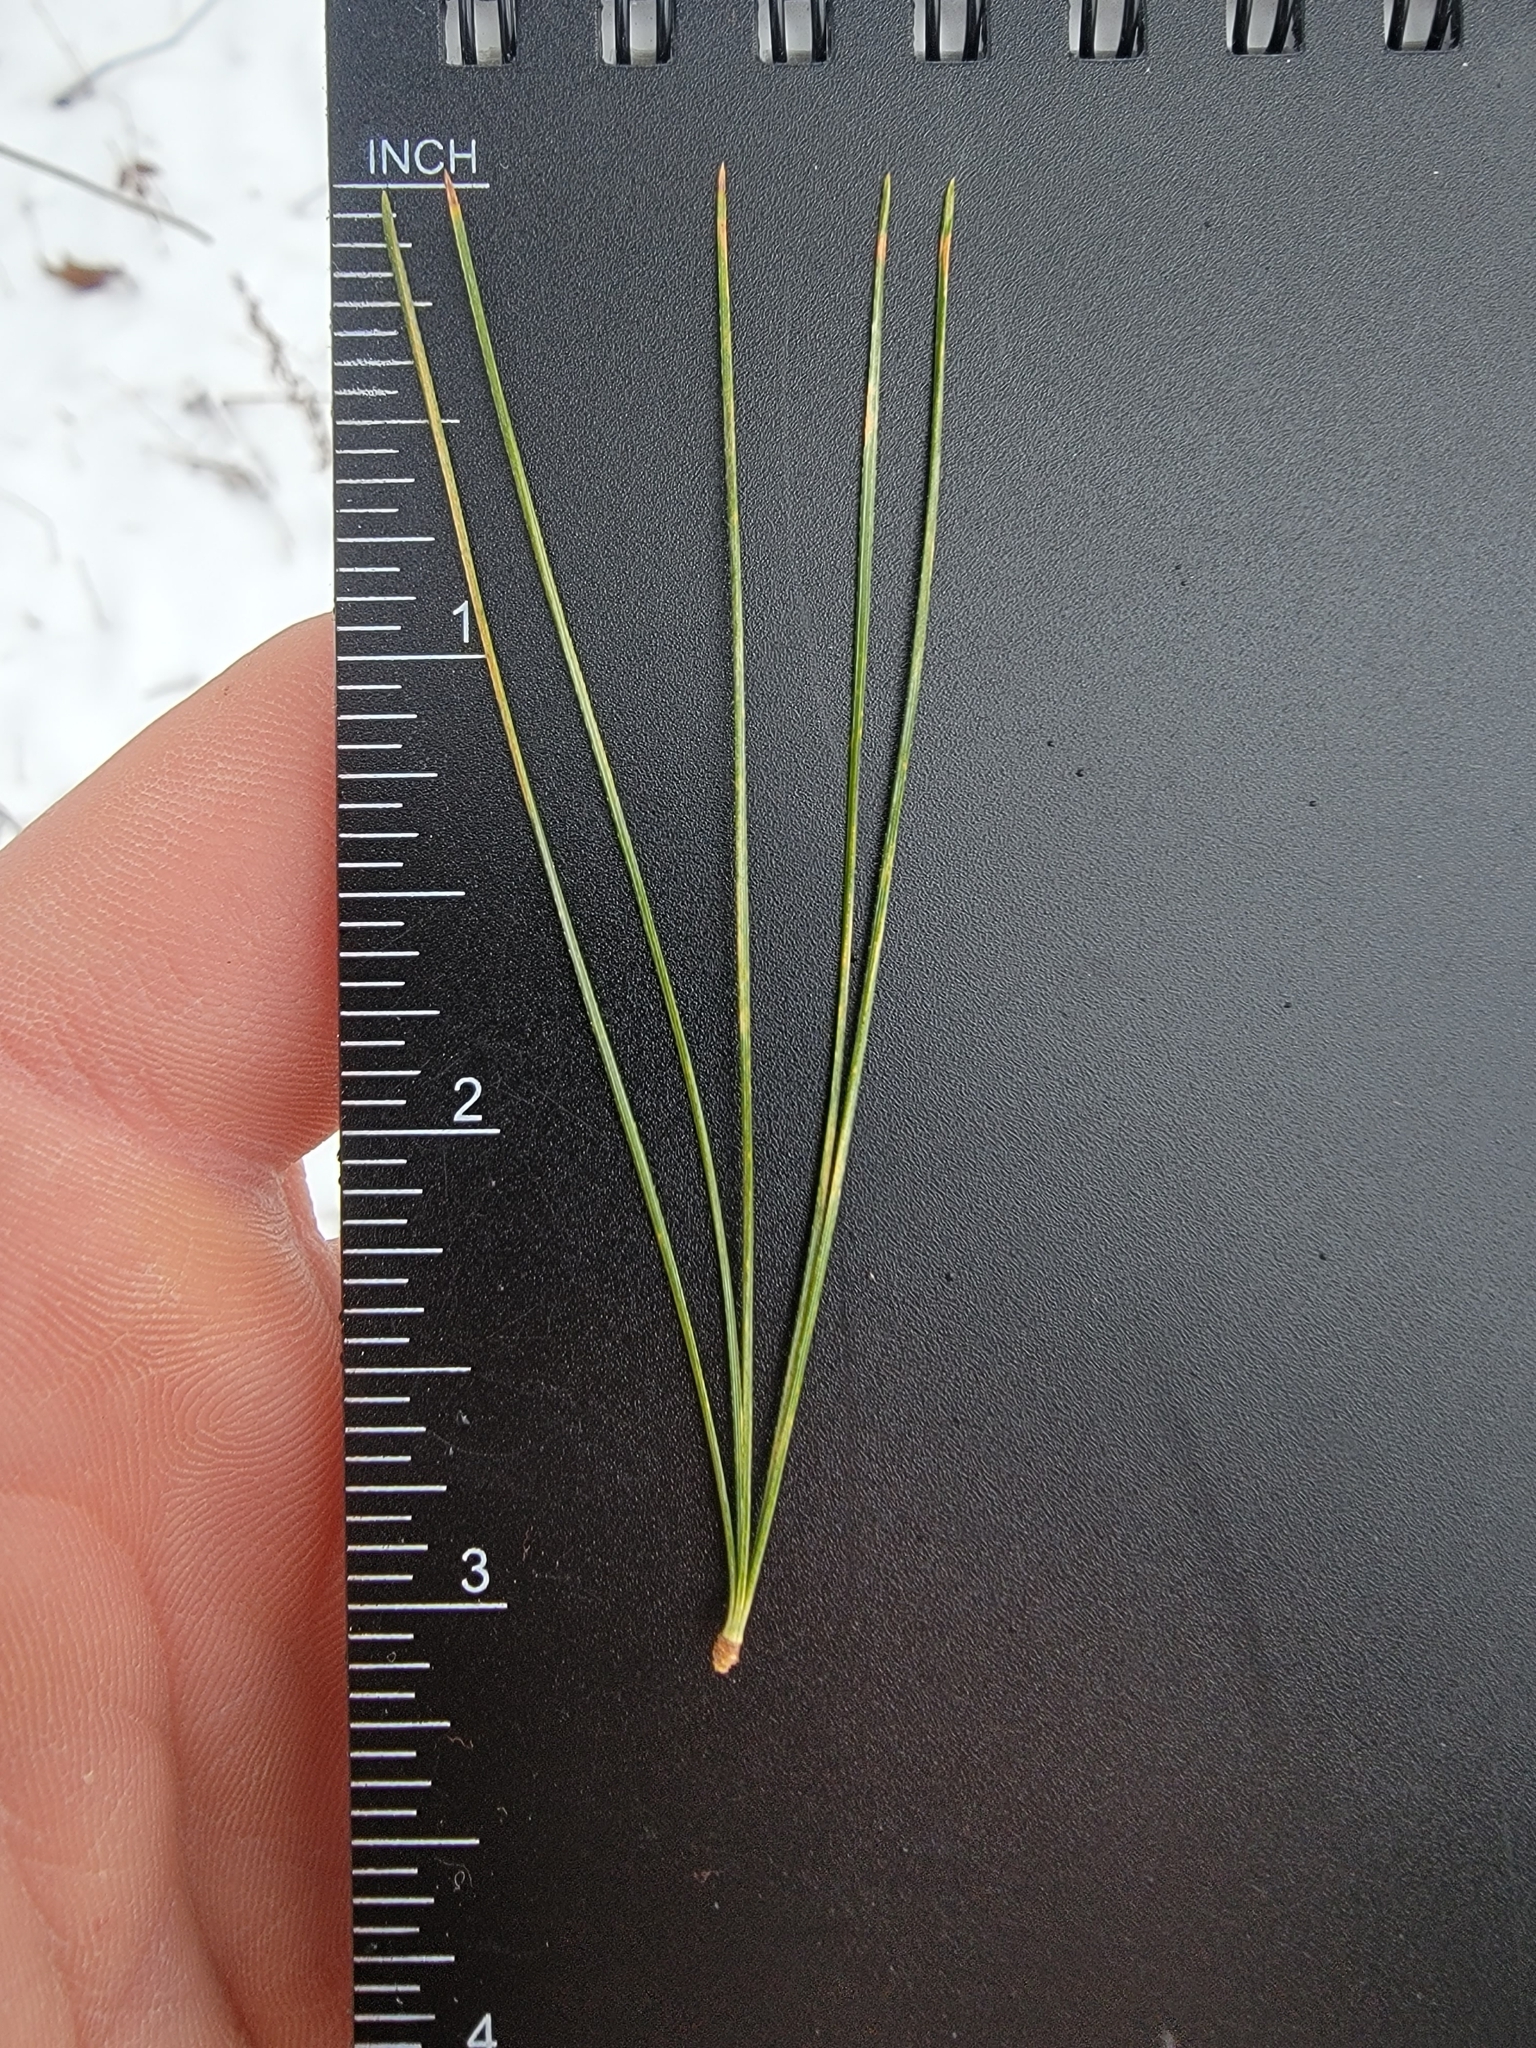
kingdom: Plantae
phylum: Tracheophyta
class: Pinopsida
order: Pinales
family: Pinaceae
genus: Pinus
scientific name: Pinus strobus
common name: Weymouth pine
